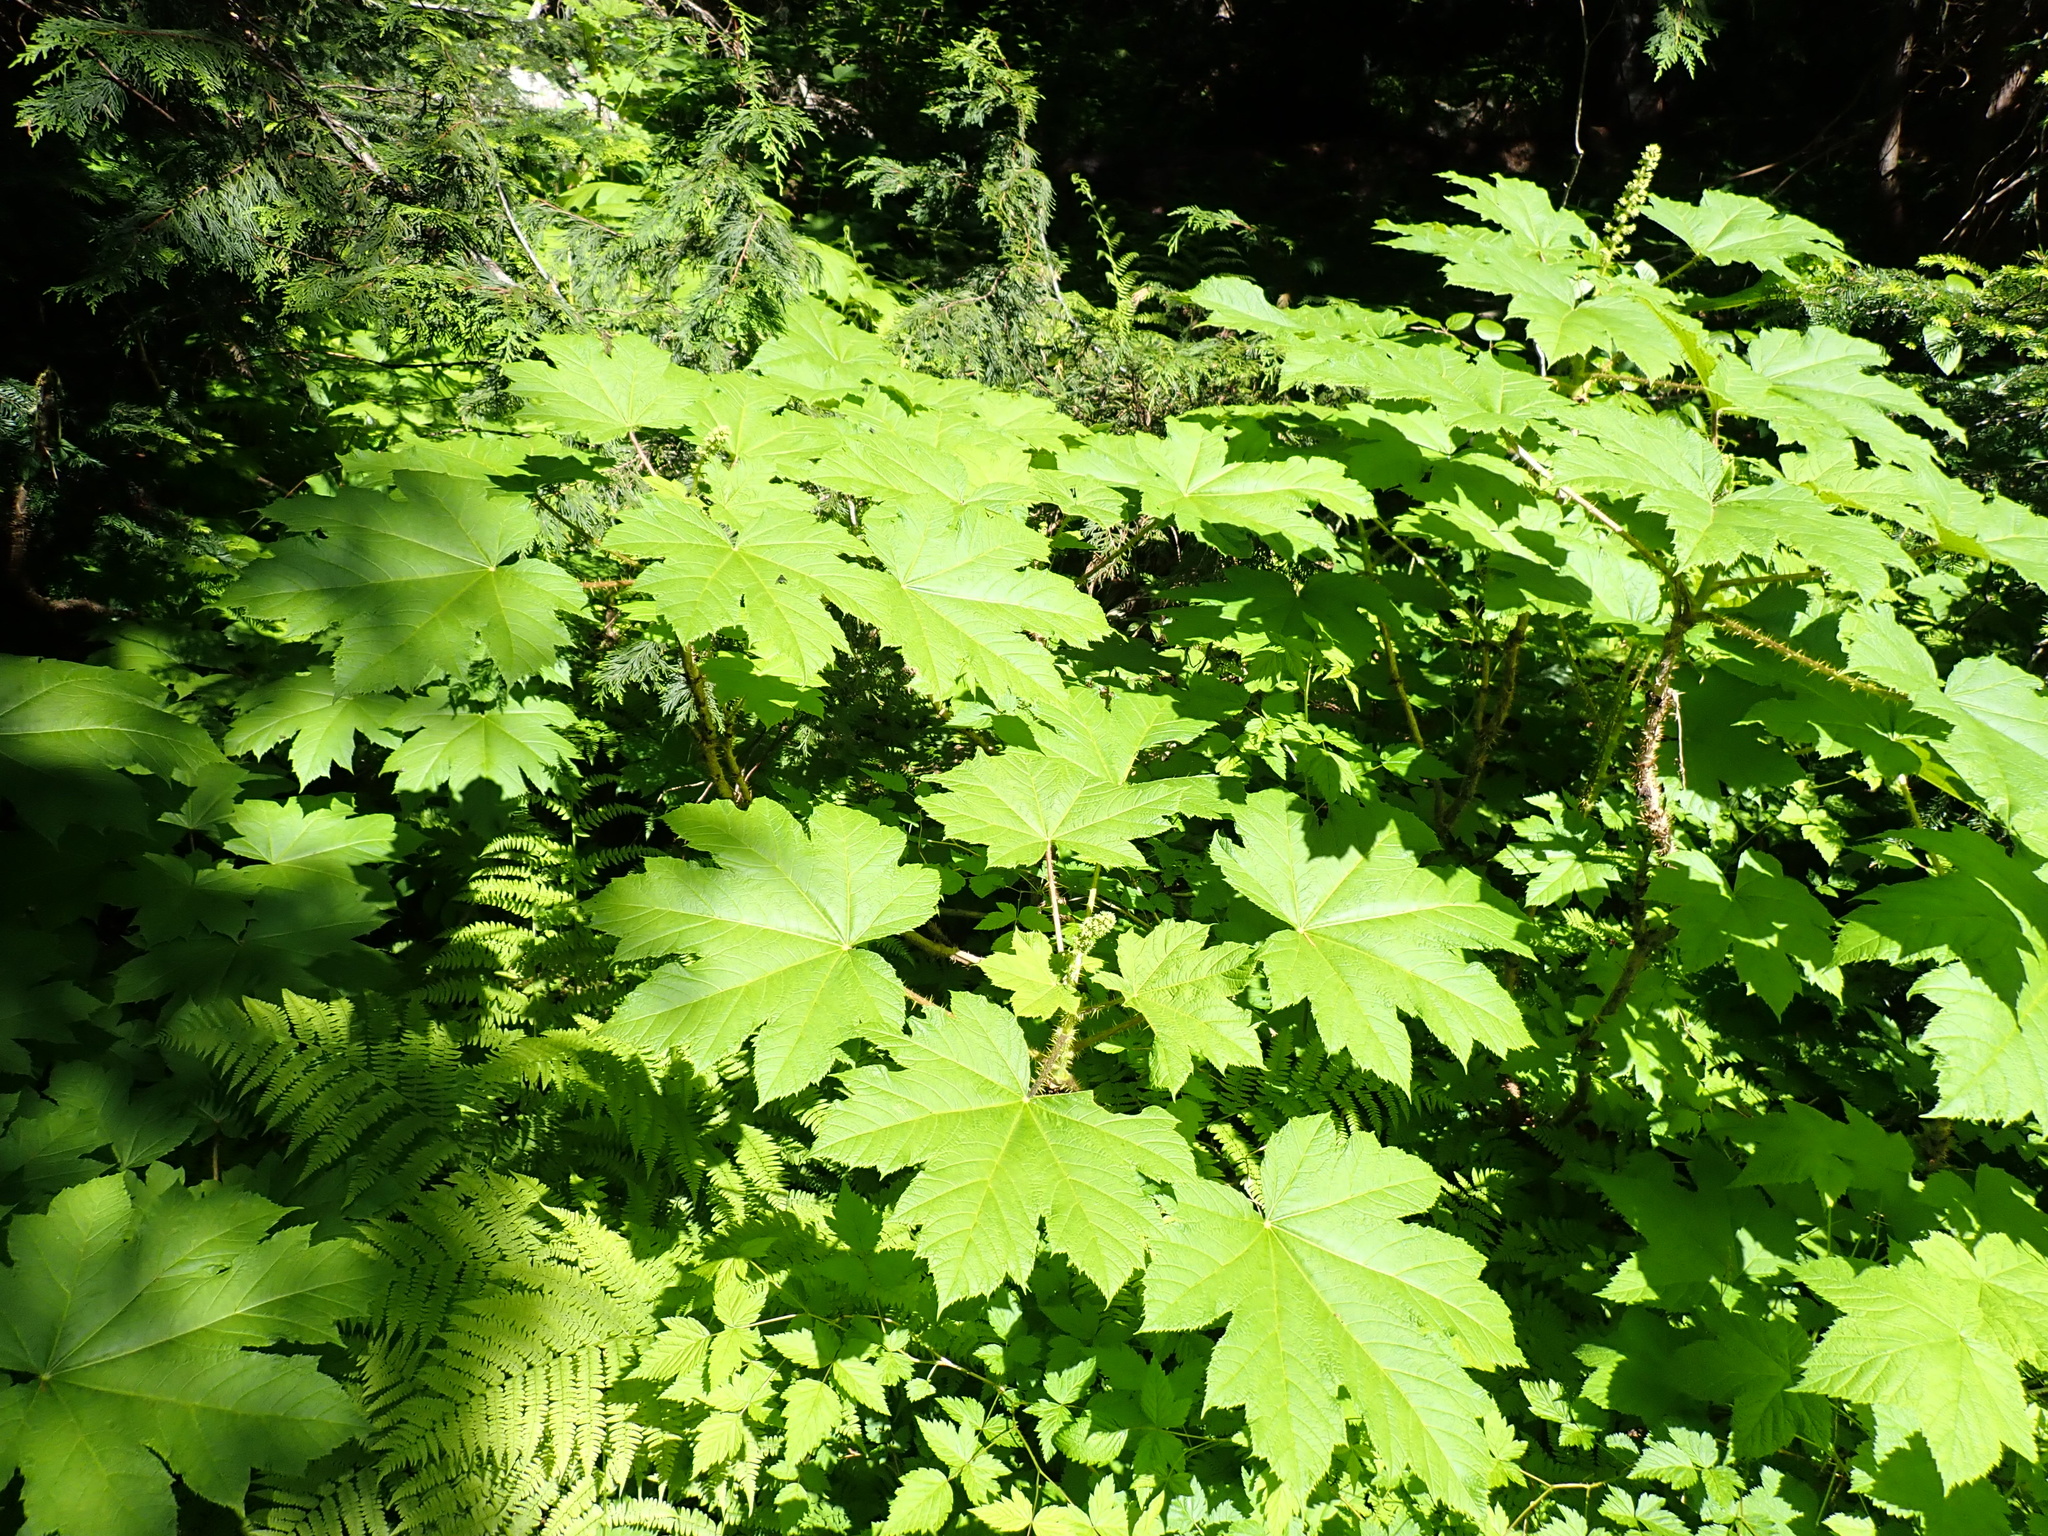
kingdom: Plantae
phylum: Tracheophyta
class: Magnoliopsida
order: Apiales
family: Araliaceae
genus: Oplopanax
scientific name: Oplopanax horridus
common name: Devil's walking-stick
